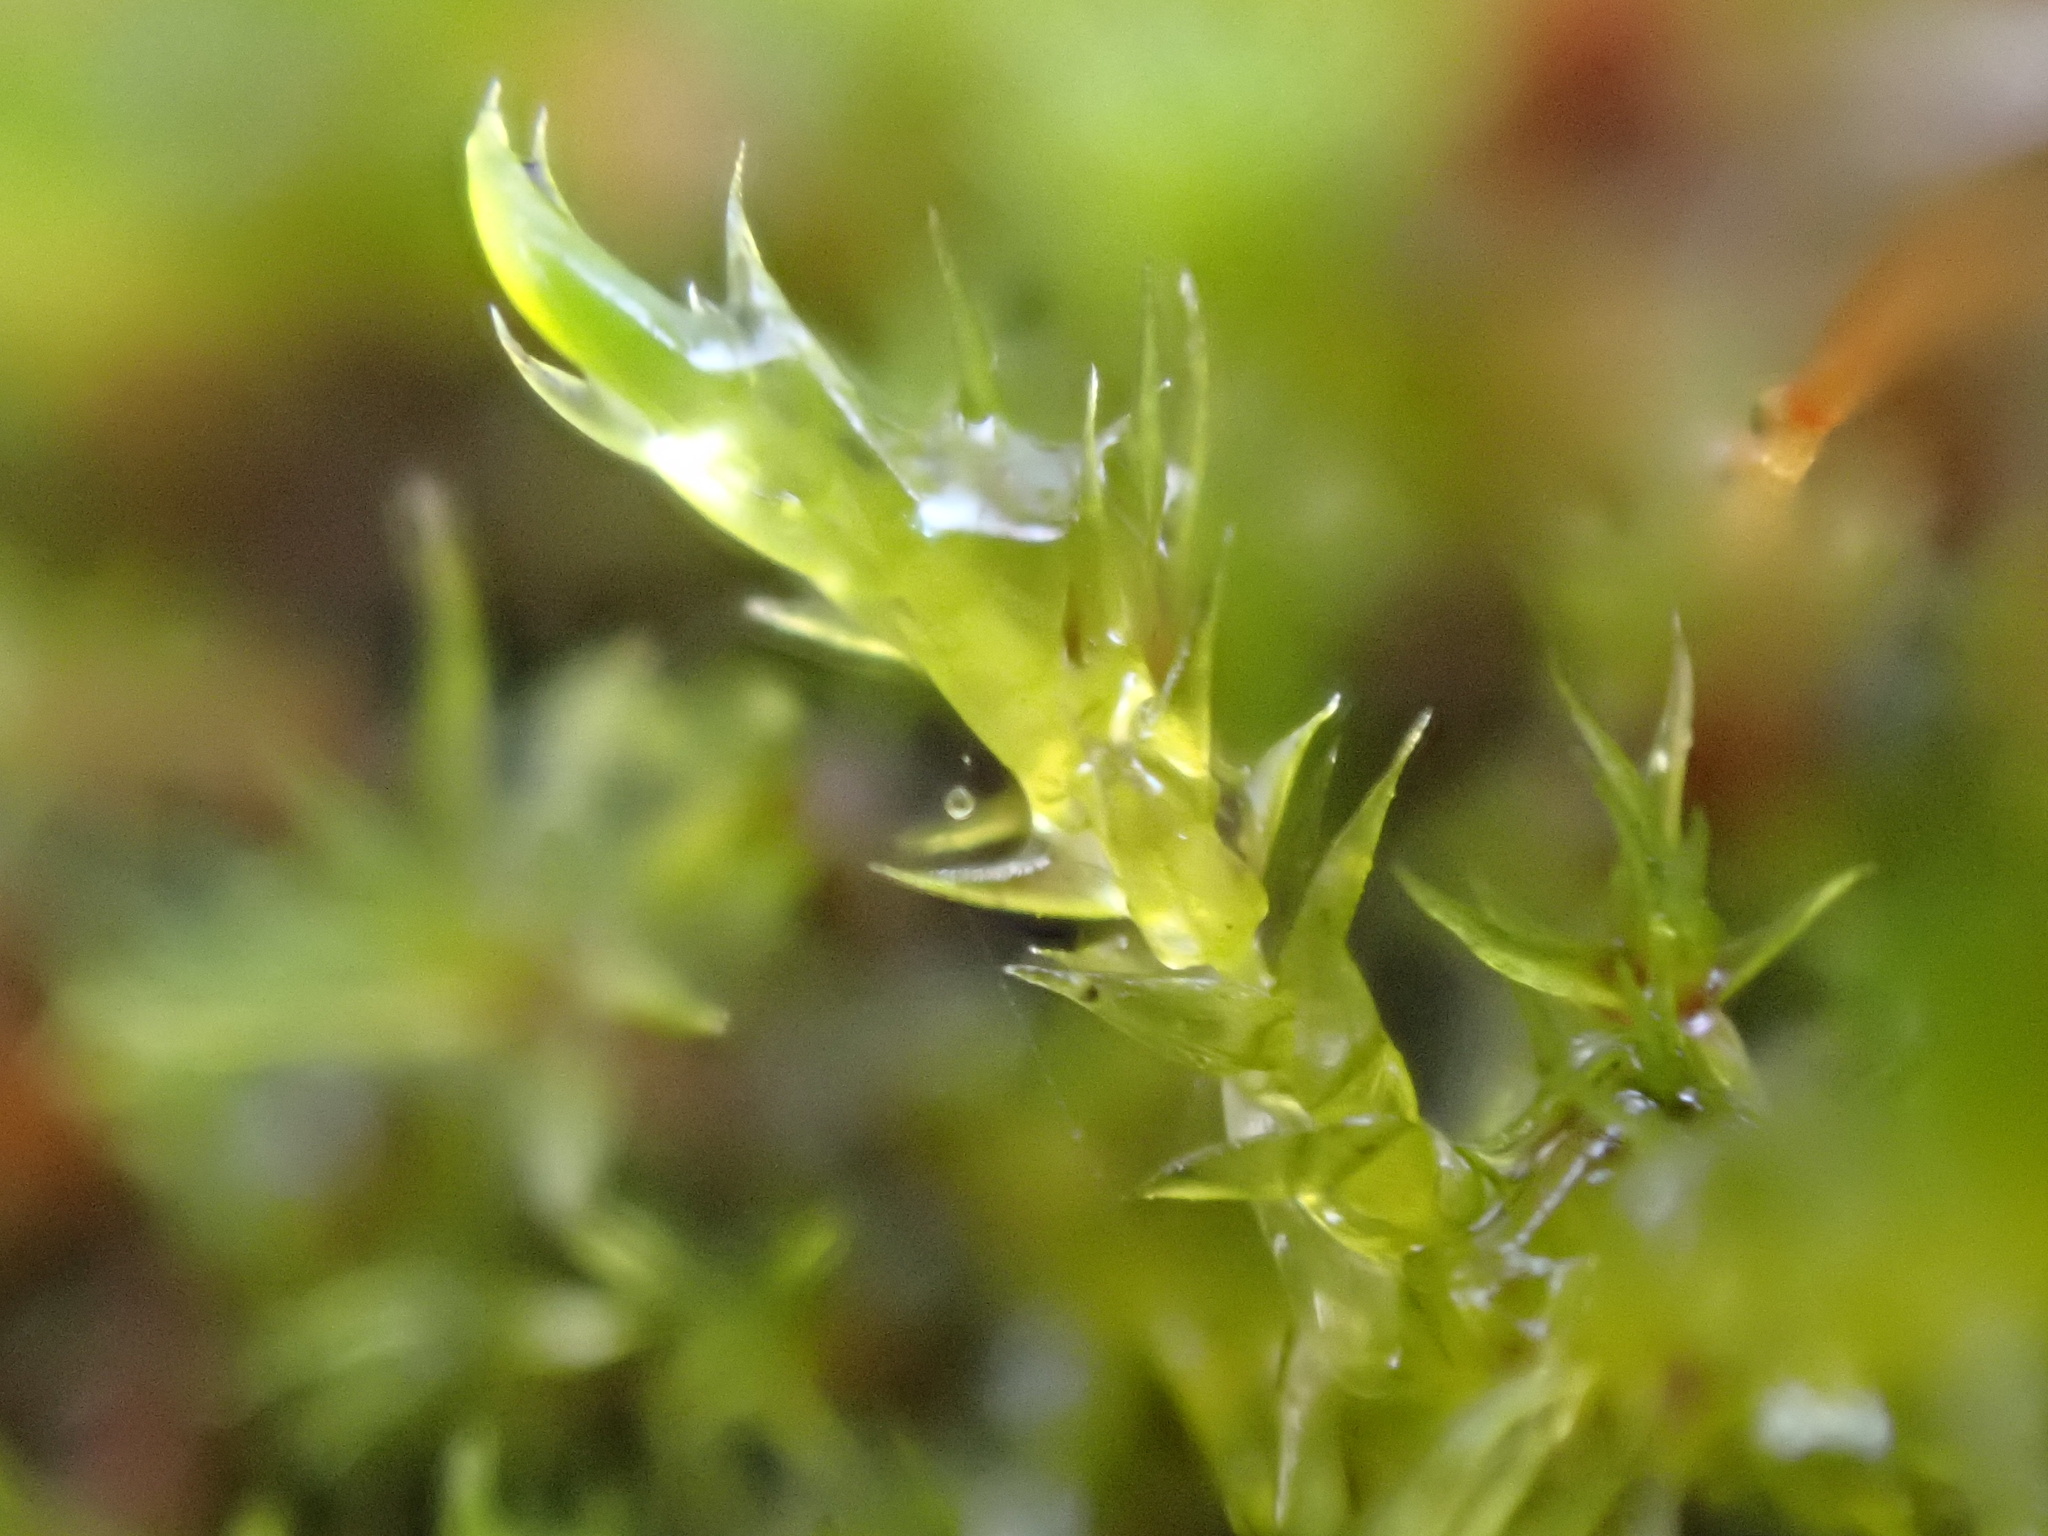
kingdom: Plantae
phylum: Bryophyta
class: Bryopsida
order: Pottiales
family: Pottiaceae
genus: Tortula
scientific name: Tortula truncata
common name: Truncated screw moss
